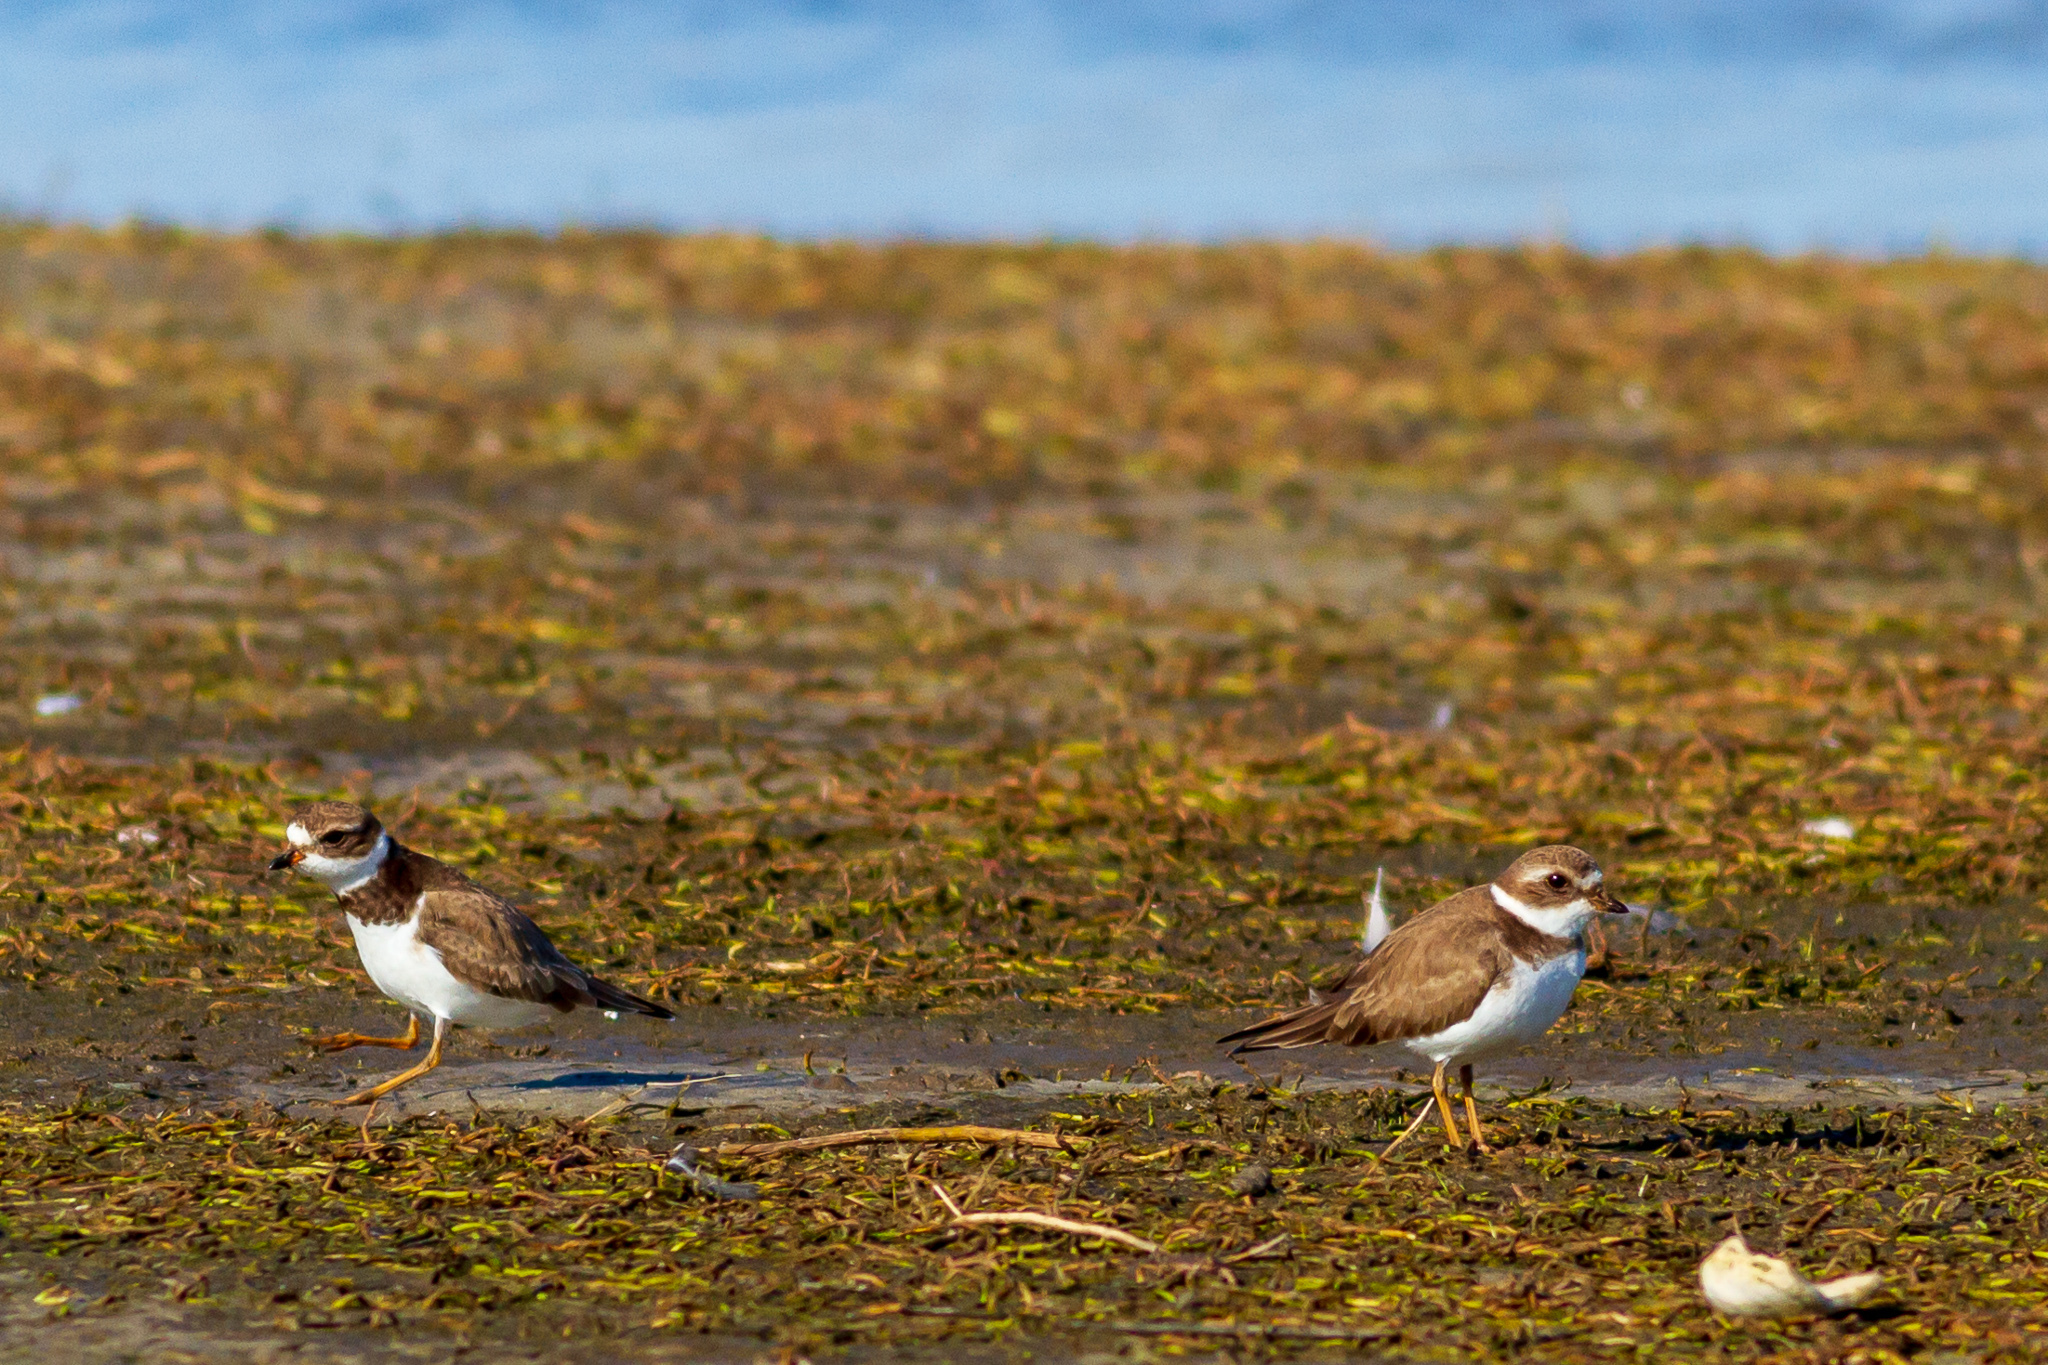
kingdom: Animalia
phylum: Chordata
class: Aves
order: Charadriiformes
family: Charadriidae
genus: Charadrius
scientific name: Charadrius semipalmatus
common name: Semipalmated plover
